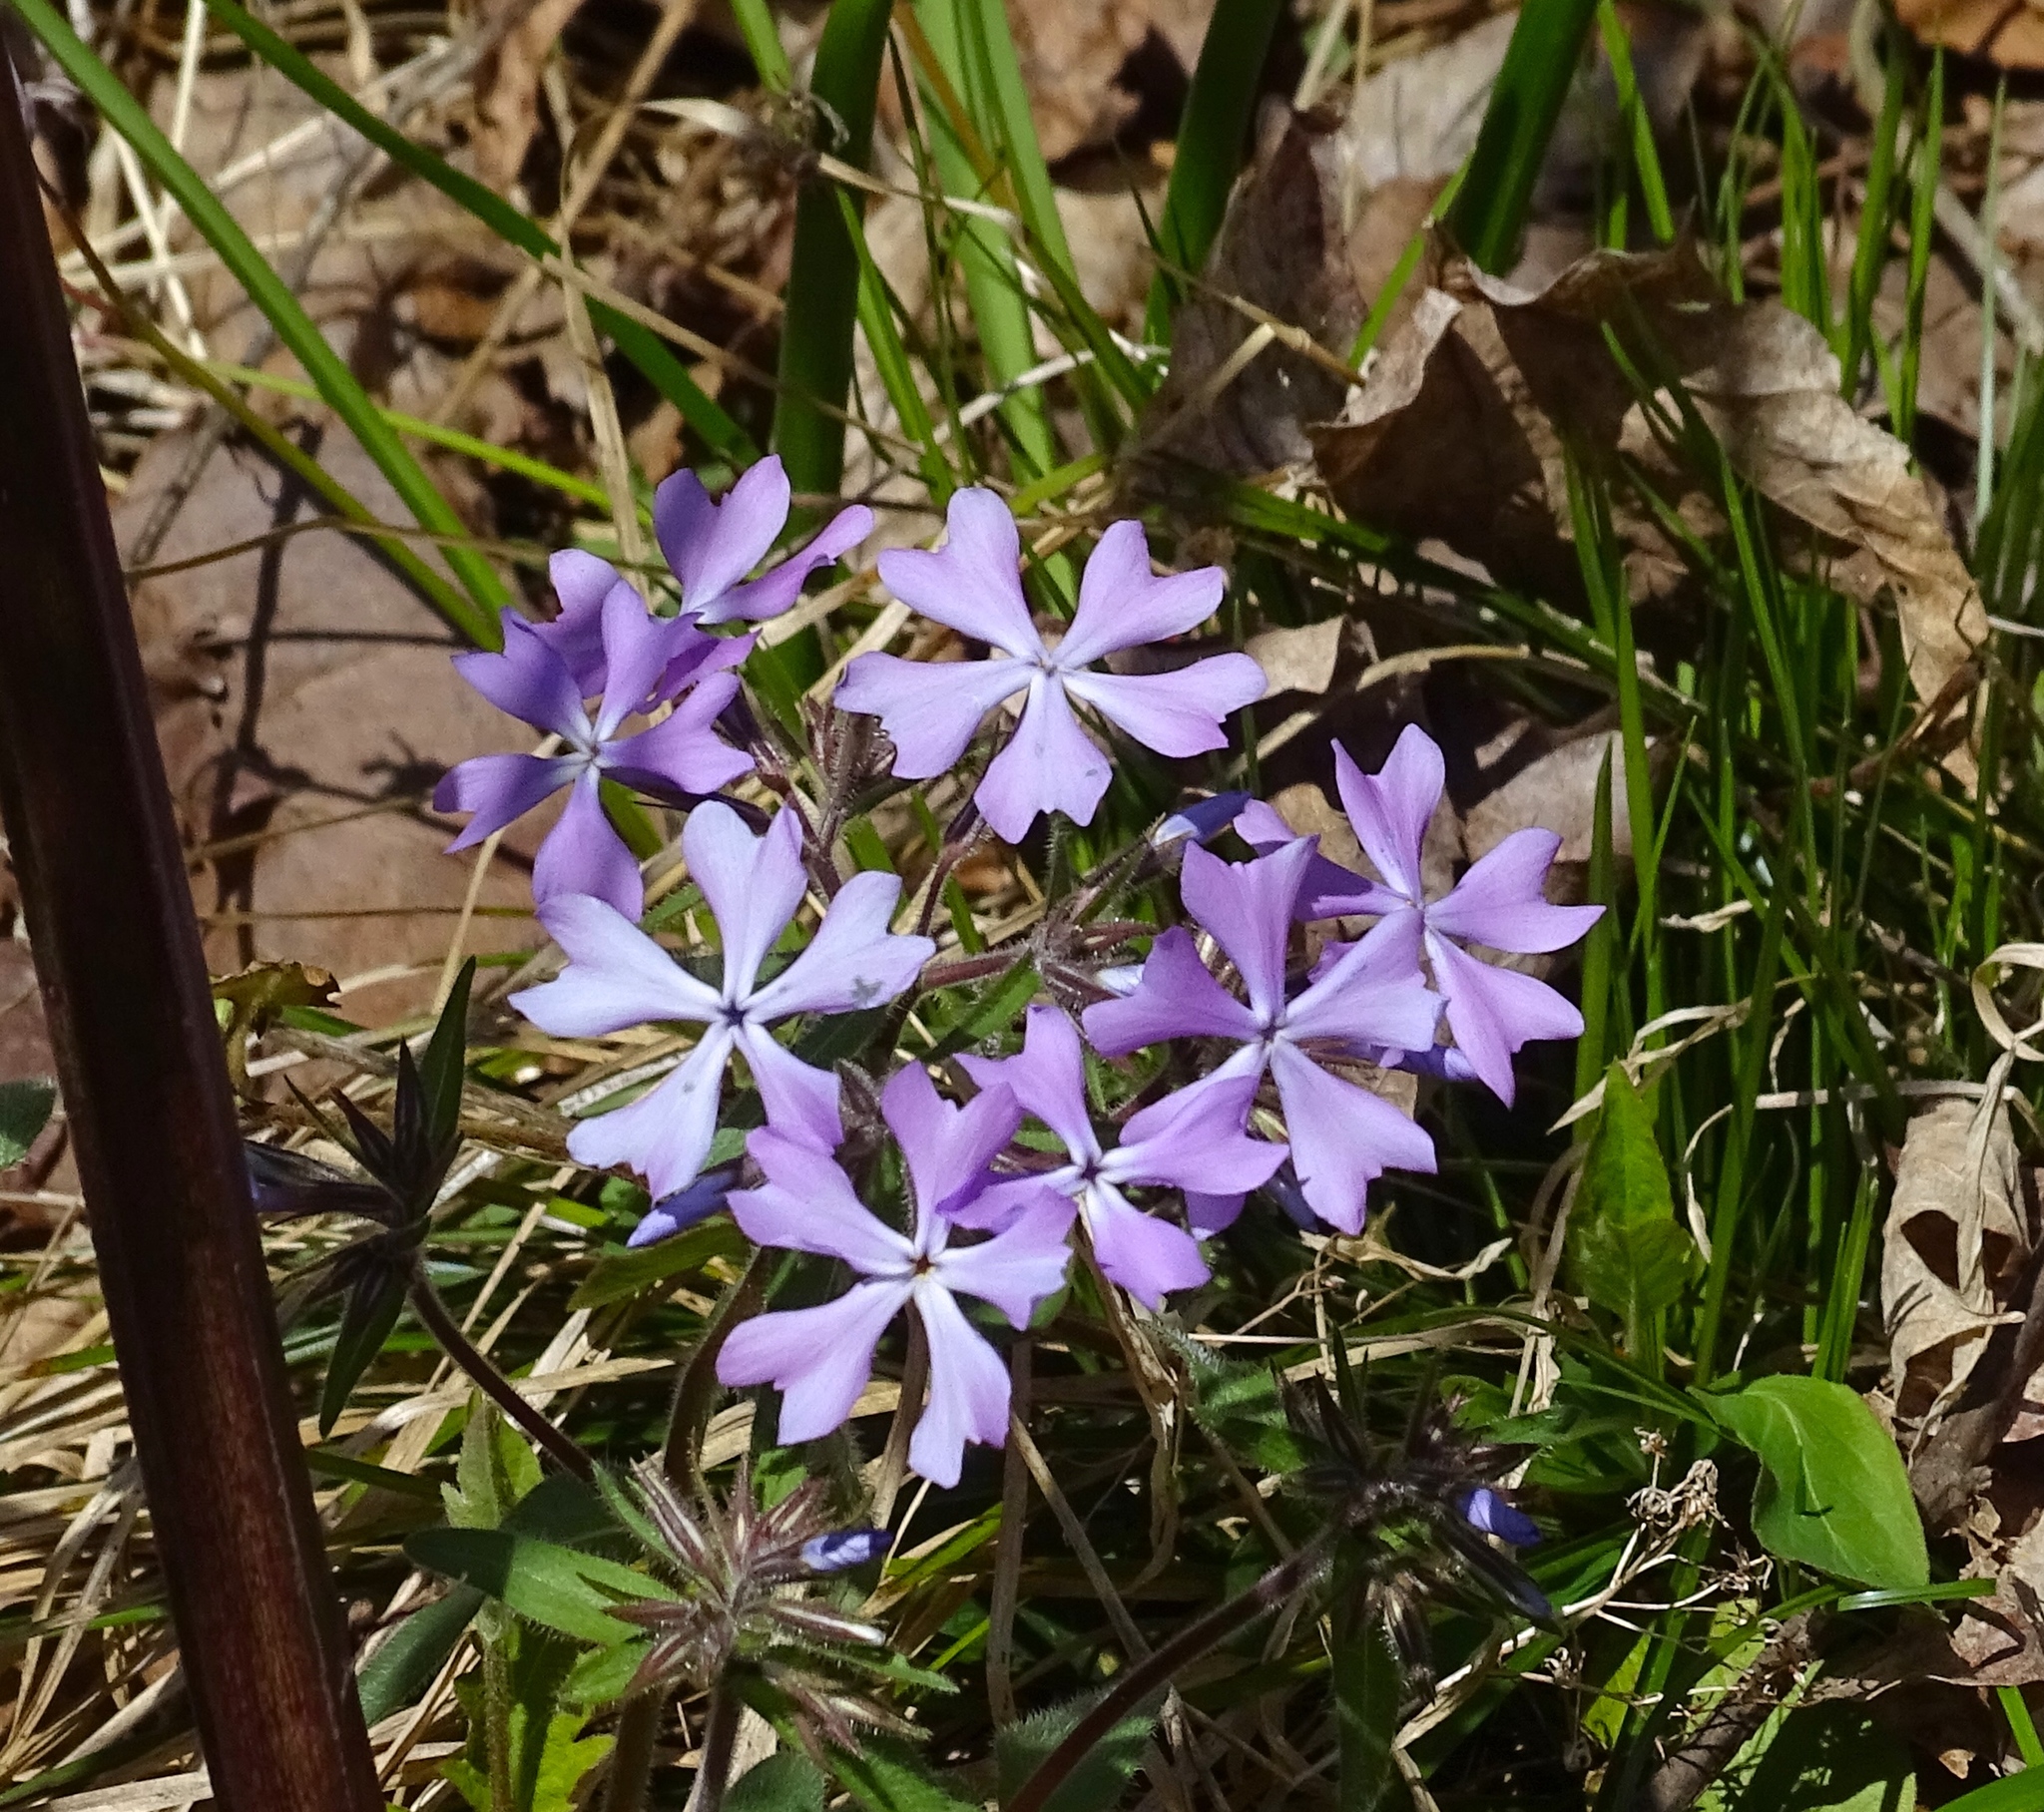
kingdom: Plantae
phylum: Tracheophyta
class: Magnoliopsida
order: Ericales
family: Polemoniaceae
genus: Phlox
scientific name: Phlox divaricata
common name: Blue phlox
